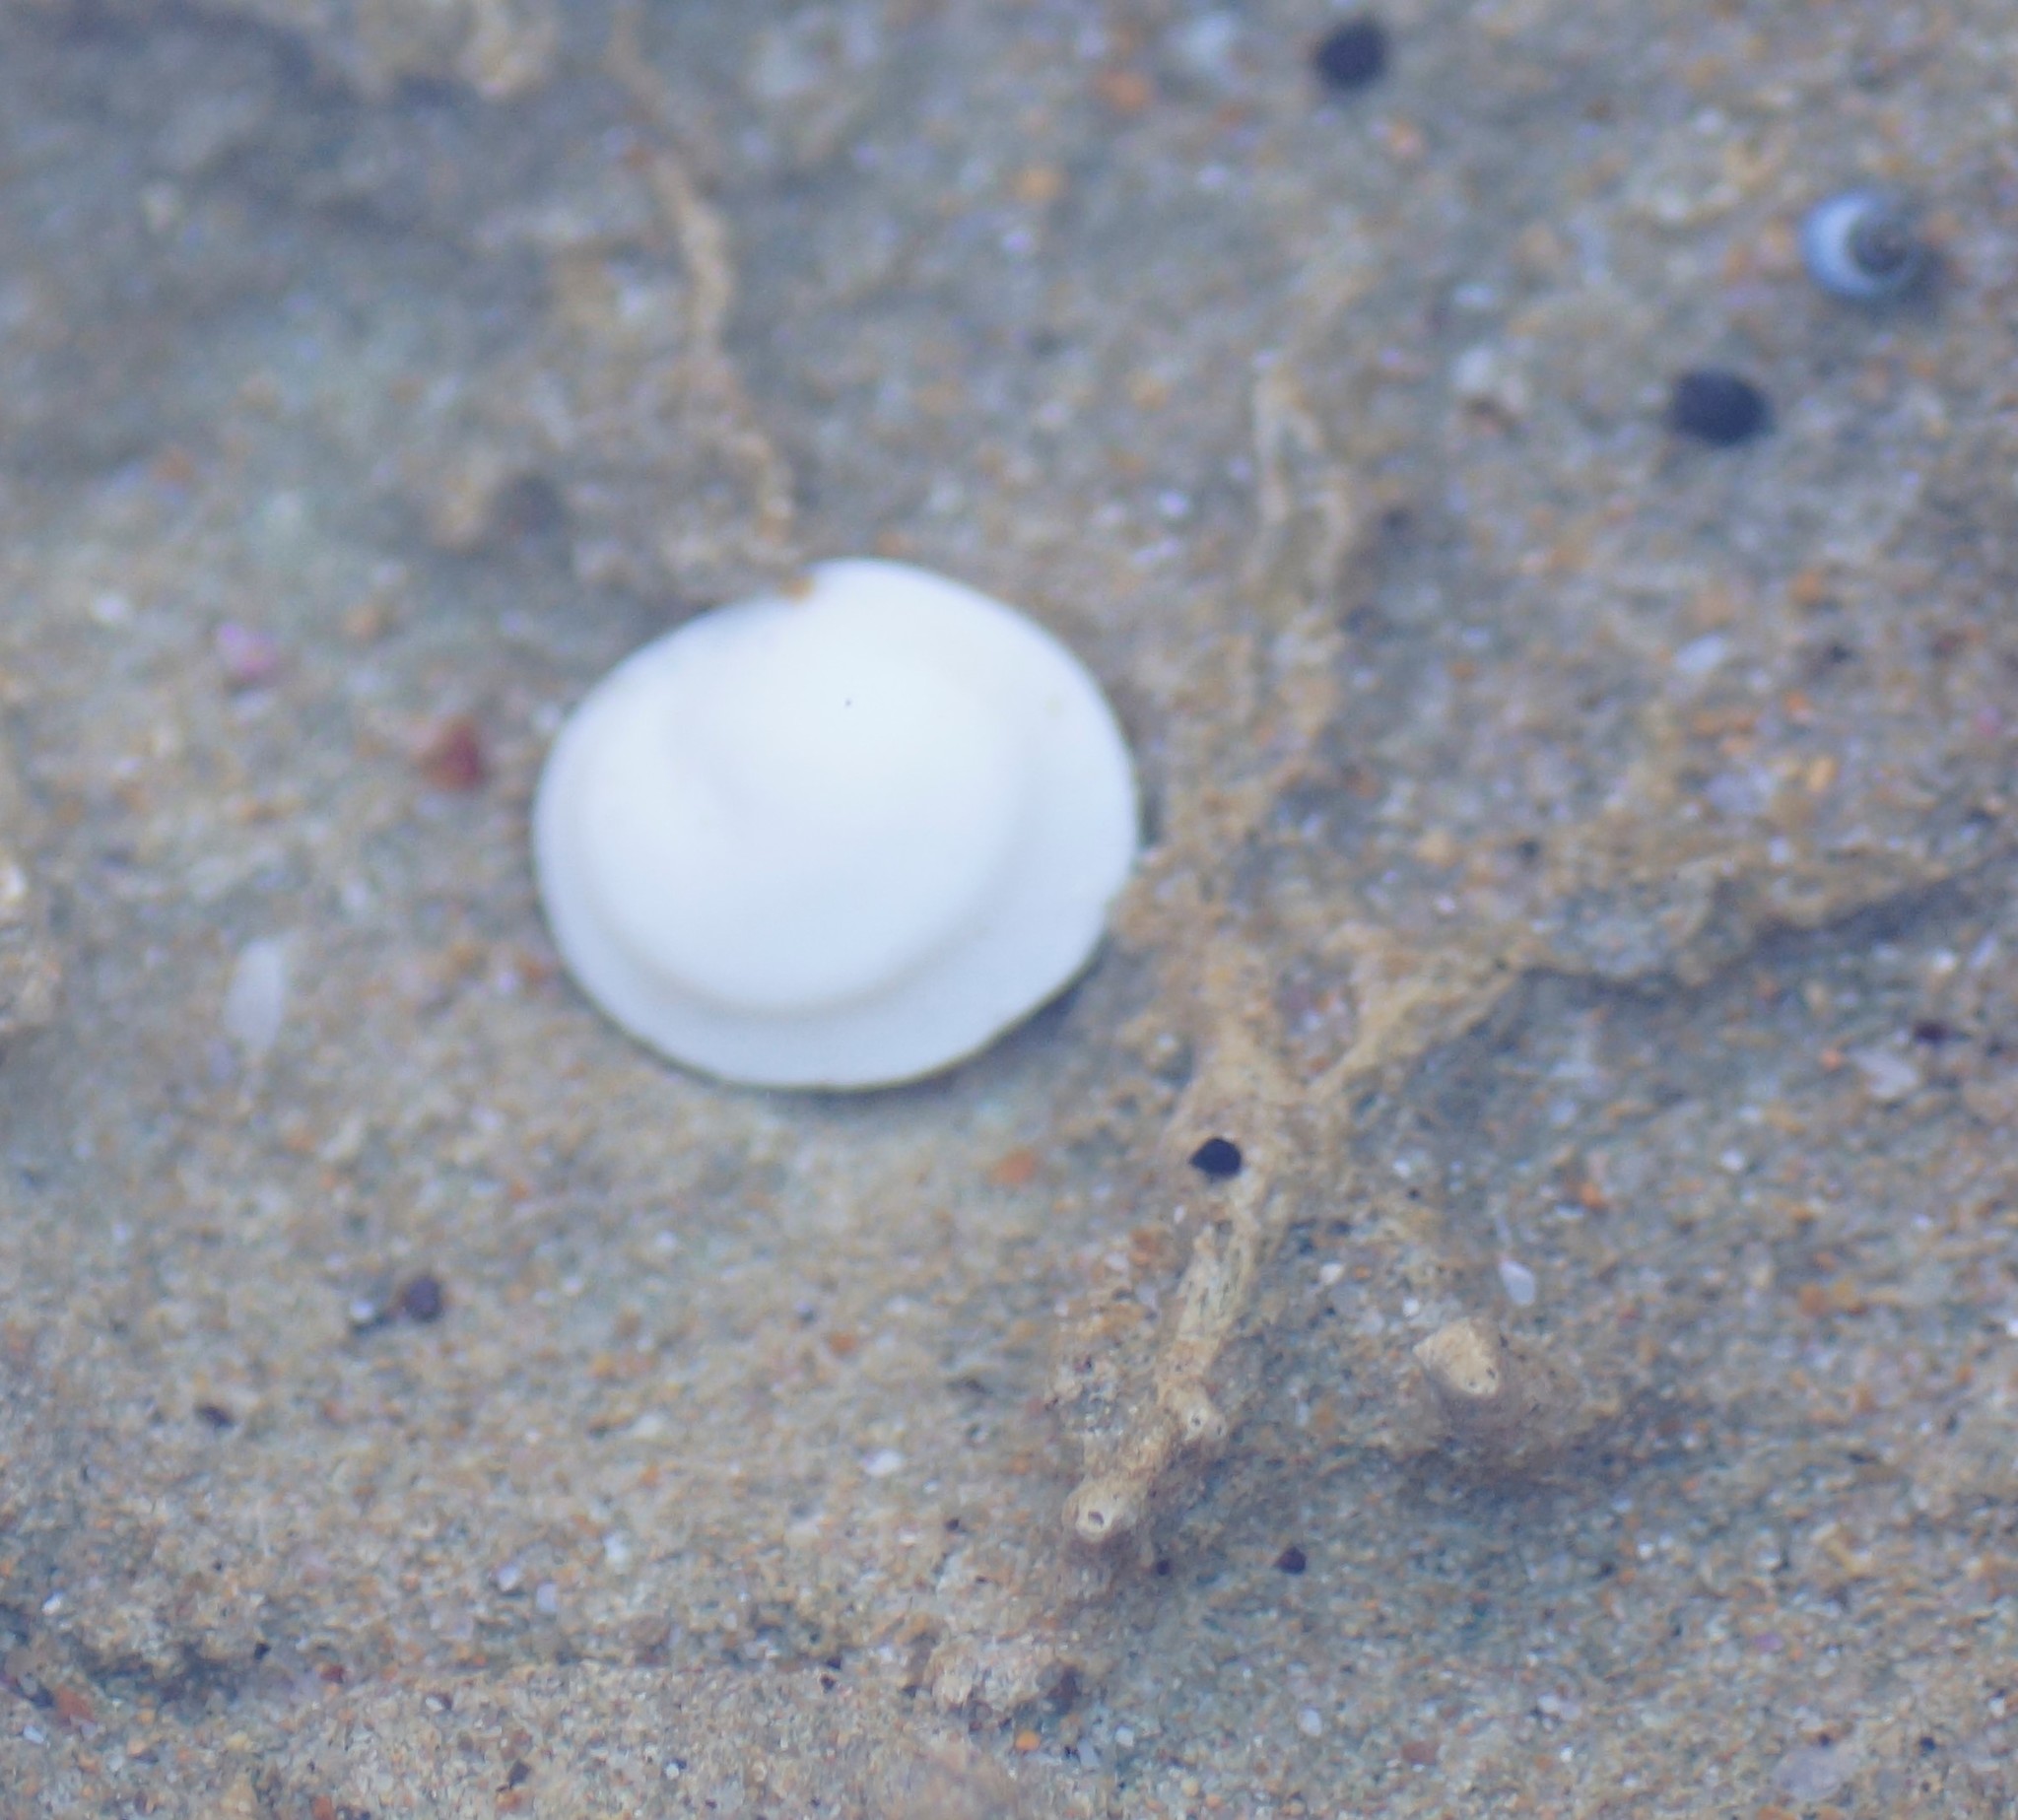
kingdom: Animalia
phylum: Mollusca
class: Gastropoda
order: Trochida
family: Turbinidae
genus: Lunella
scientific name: Lunella undulata
